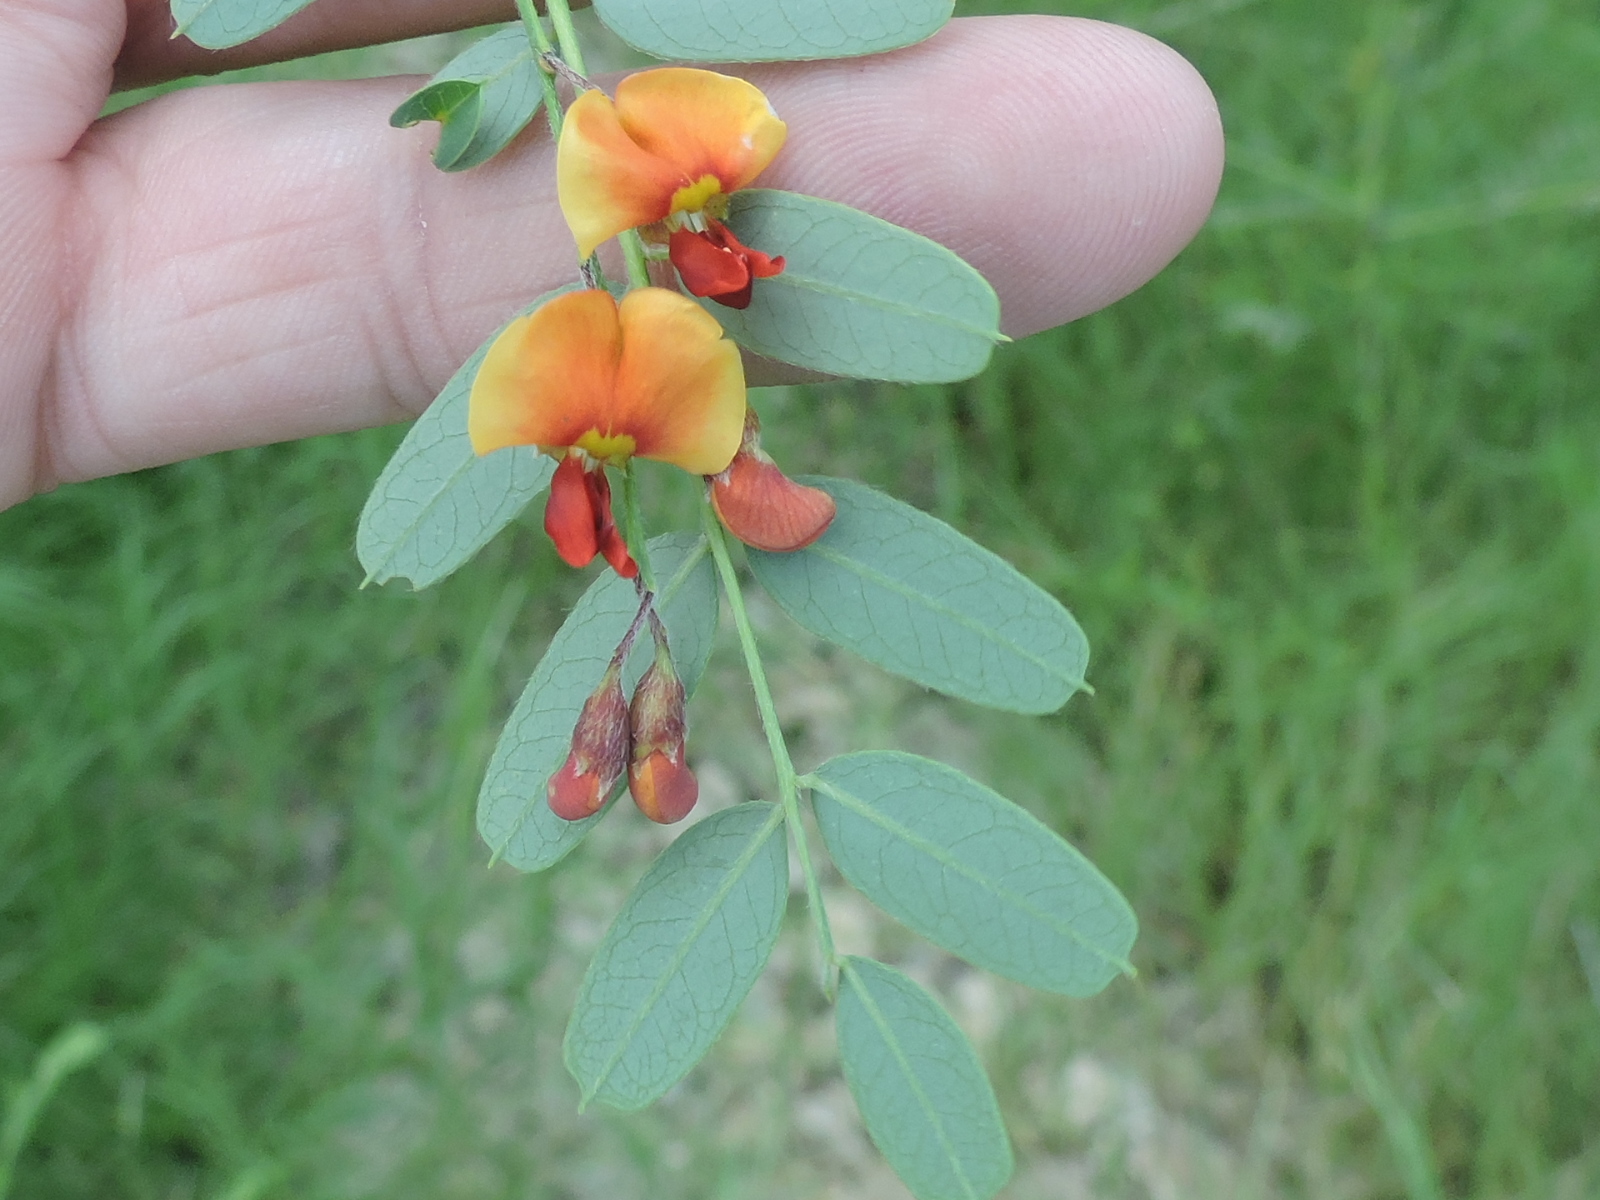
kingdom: Plantae
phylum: Tracheophyta
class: Magnoliopsida
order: Fabales
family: Fabaceae
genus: Sesbania
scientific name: Sesbania vesicaria
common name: Bagpod
